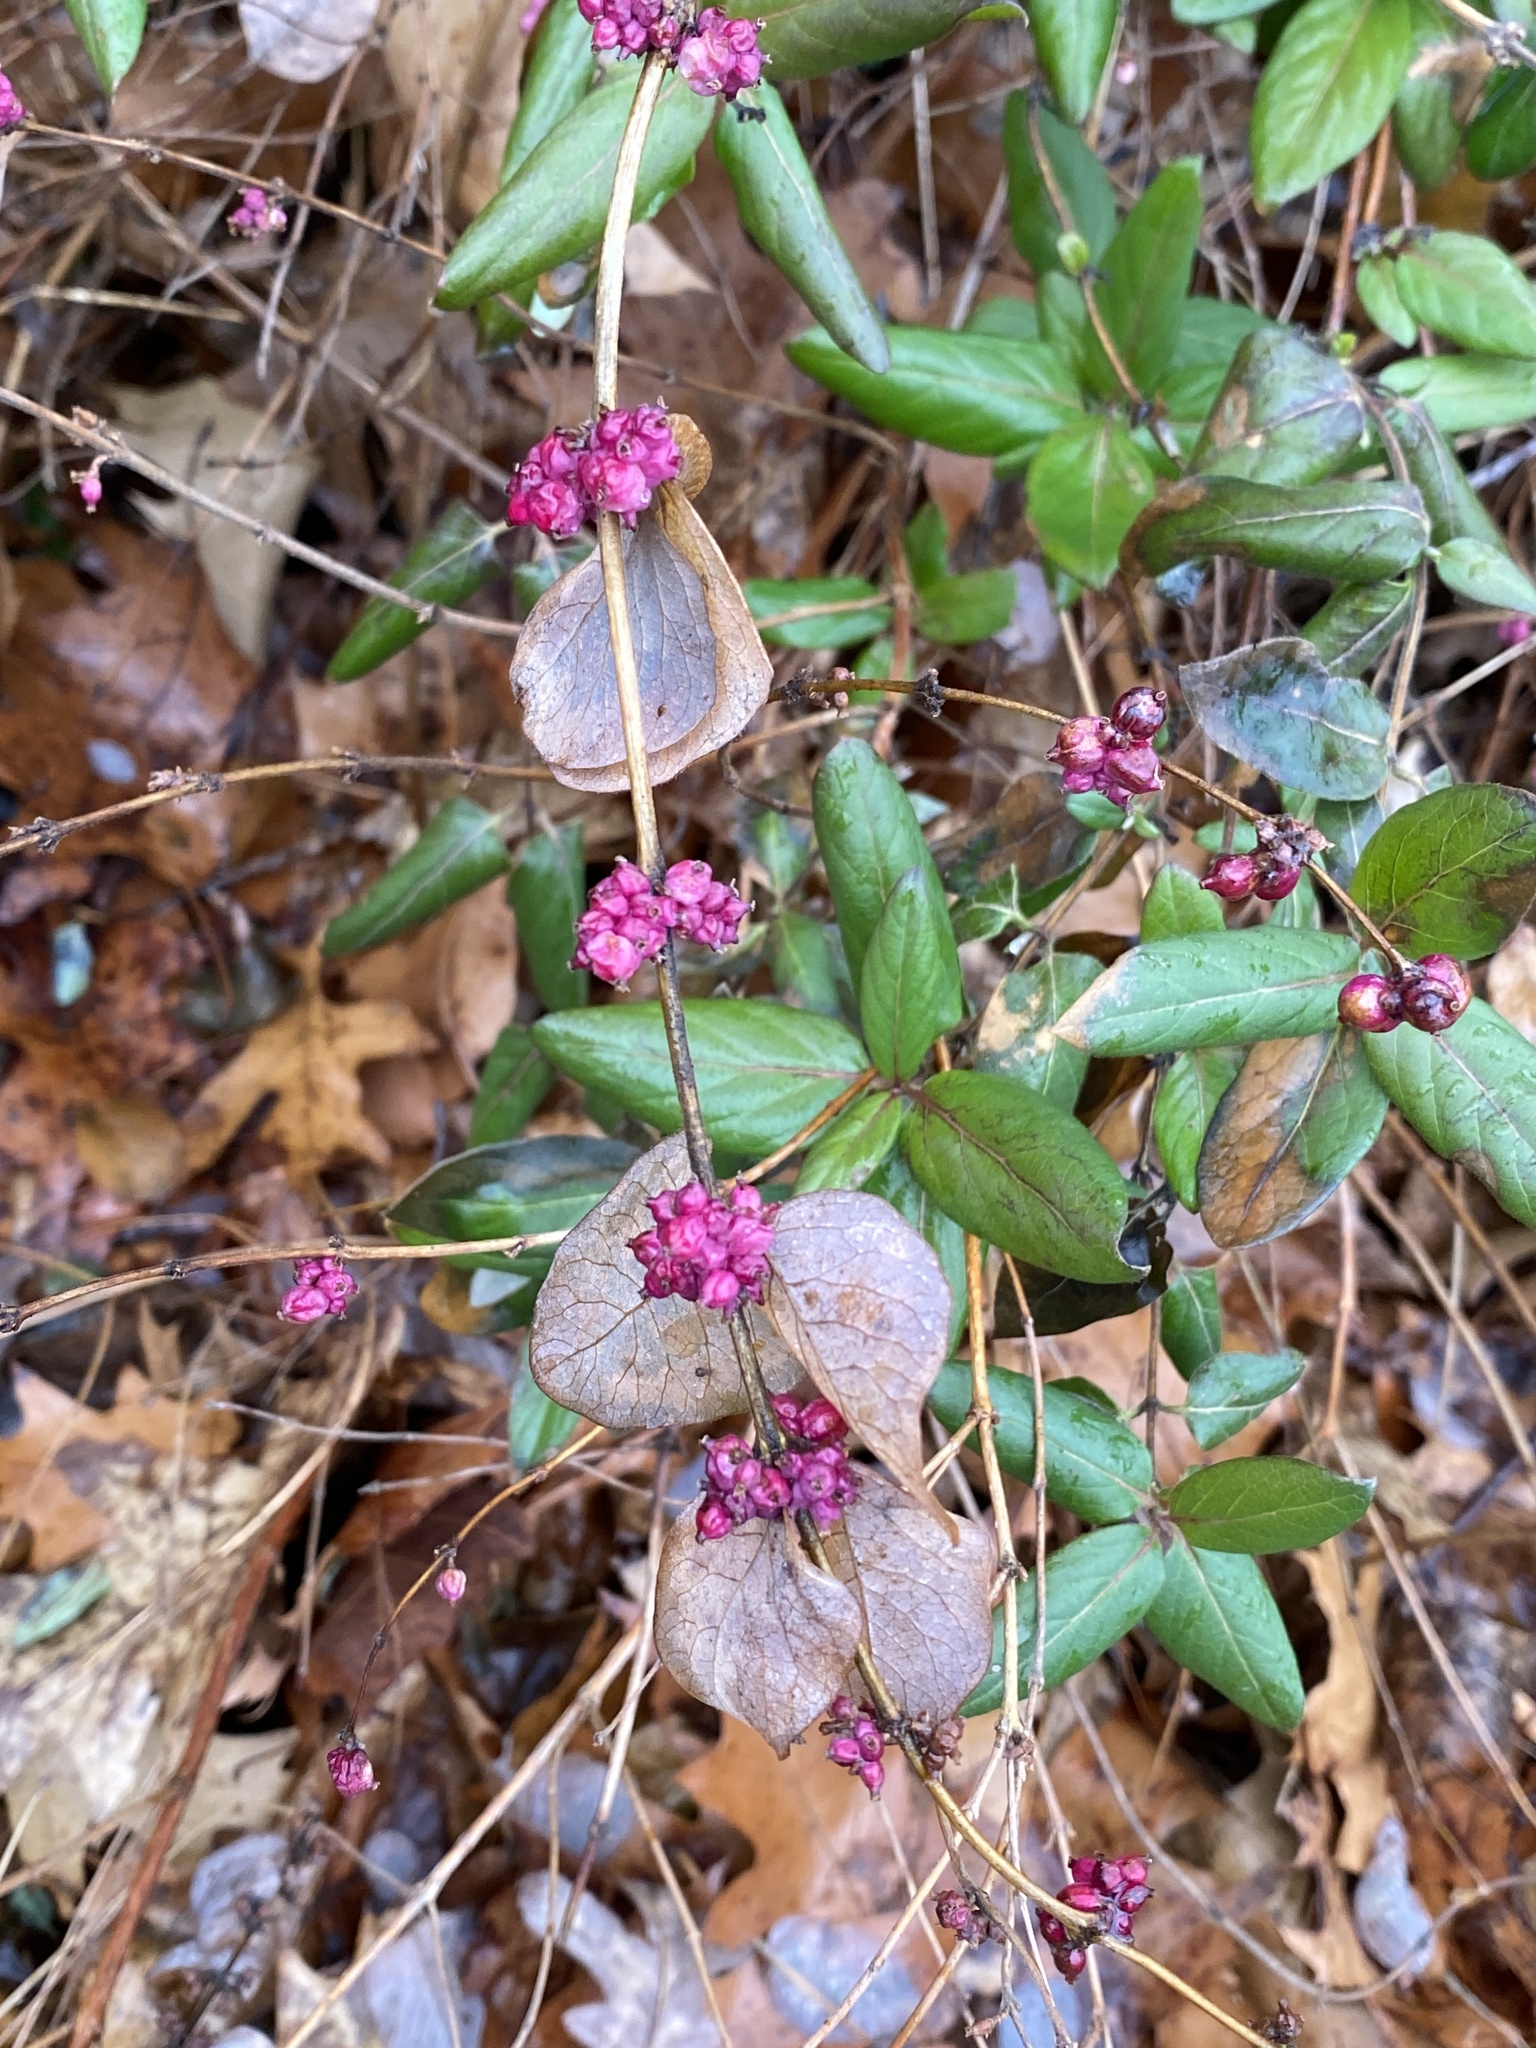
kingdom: Plantae
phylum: Tracheophyta
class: Magnoliopsida
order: Dipsacales
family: Caprifoliaceae
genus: Symphoricarpos
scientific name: Symphoricarpos orbiculatus
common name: Coralberry
